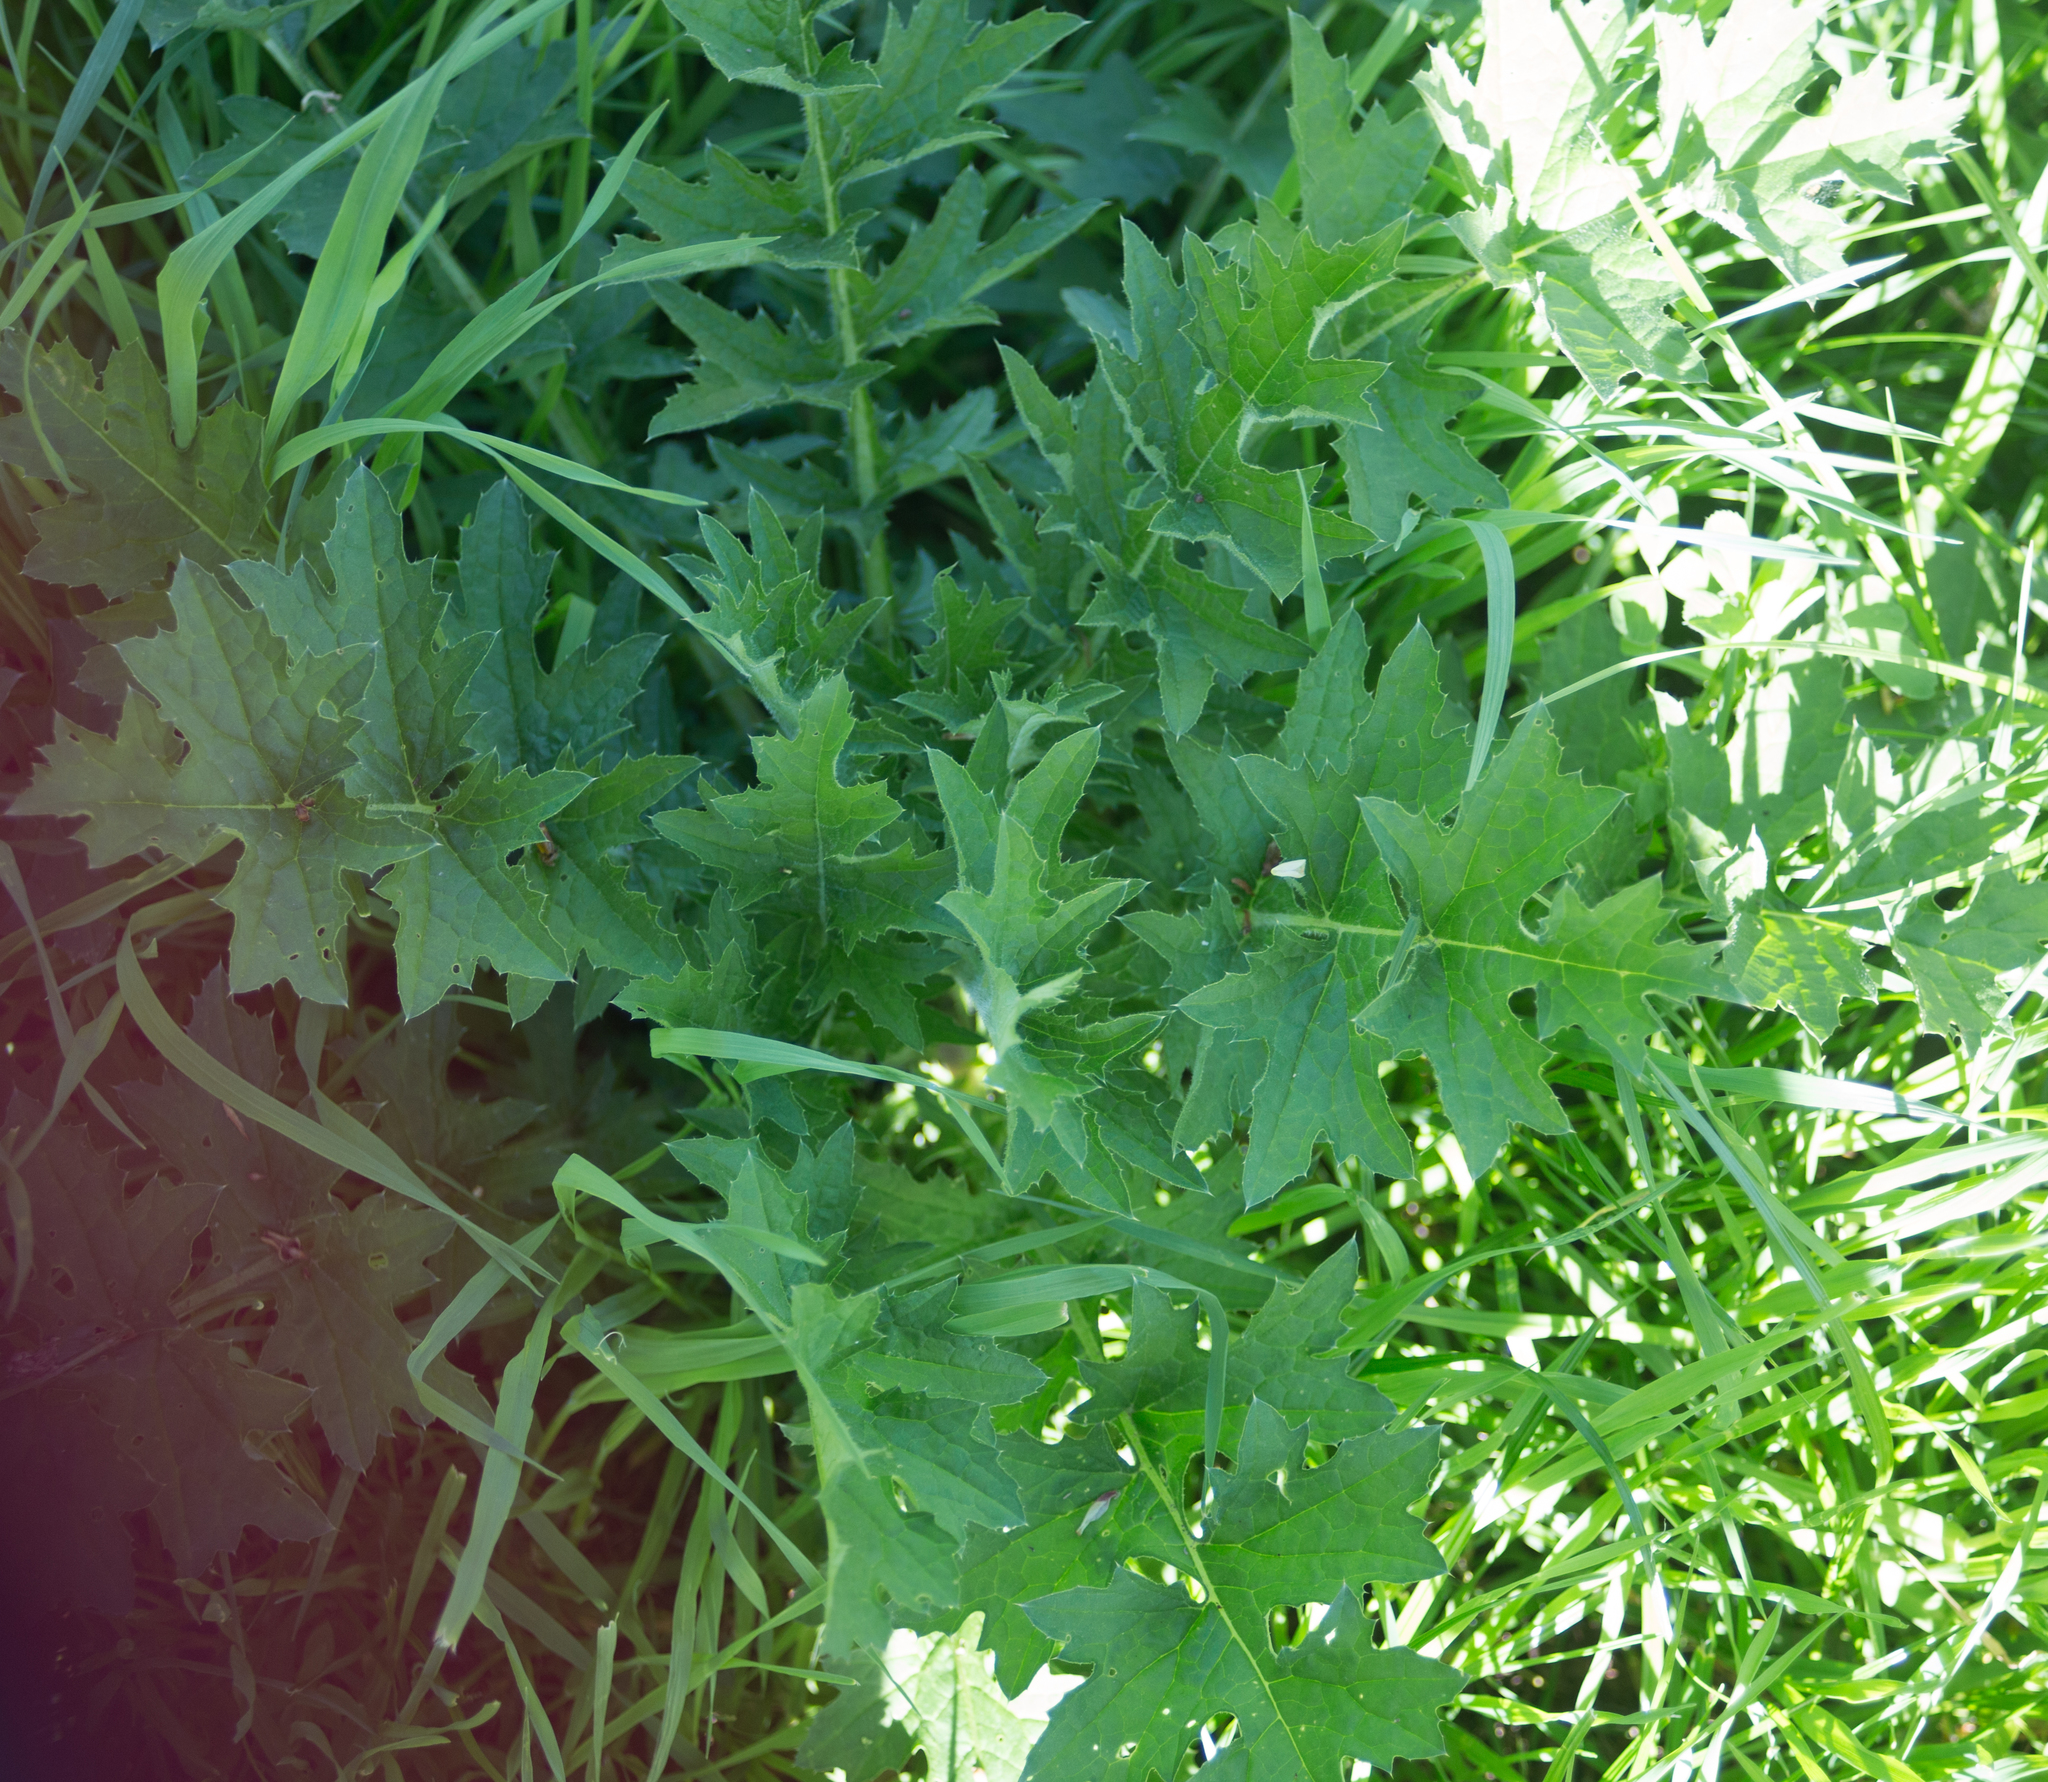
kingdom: Plantae
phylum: Tracheophyta
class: Magnoliopsida
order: Asterales
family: Asteraceae
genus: Carduus
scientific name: Carduus crispus
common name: Welted thistle
